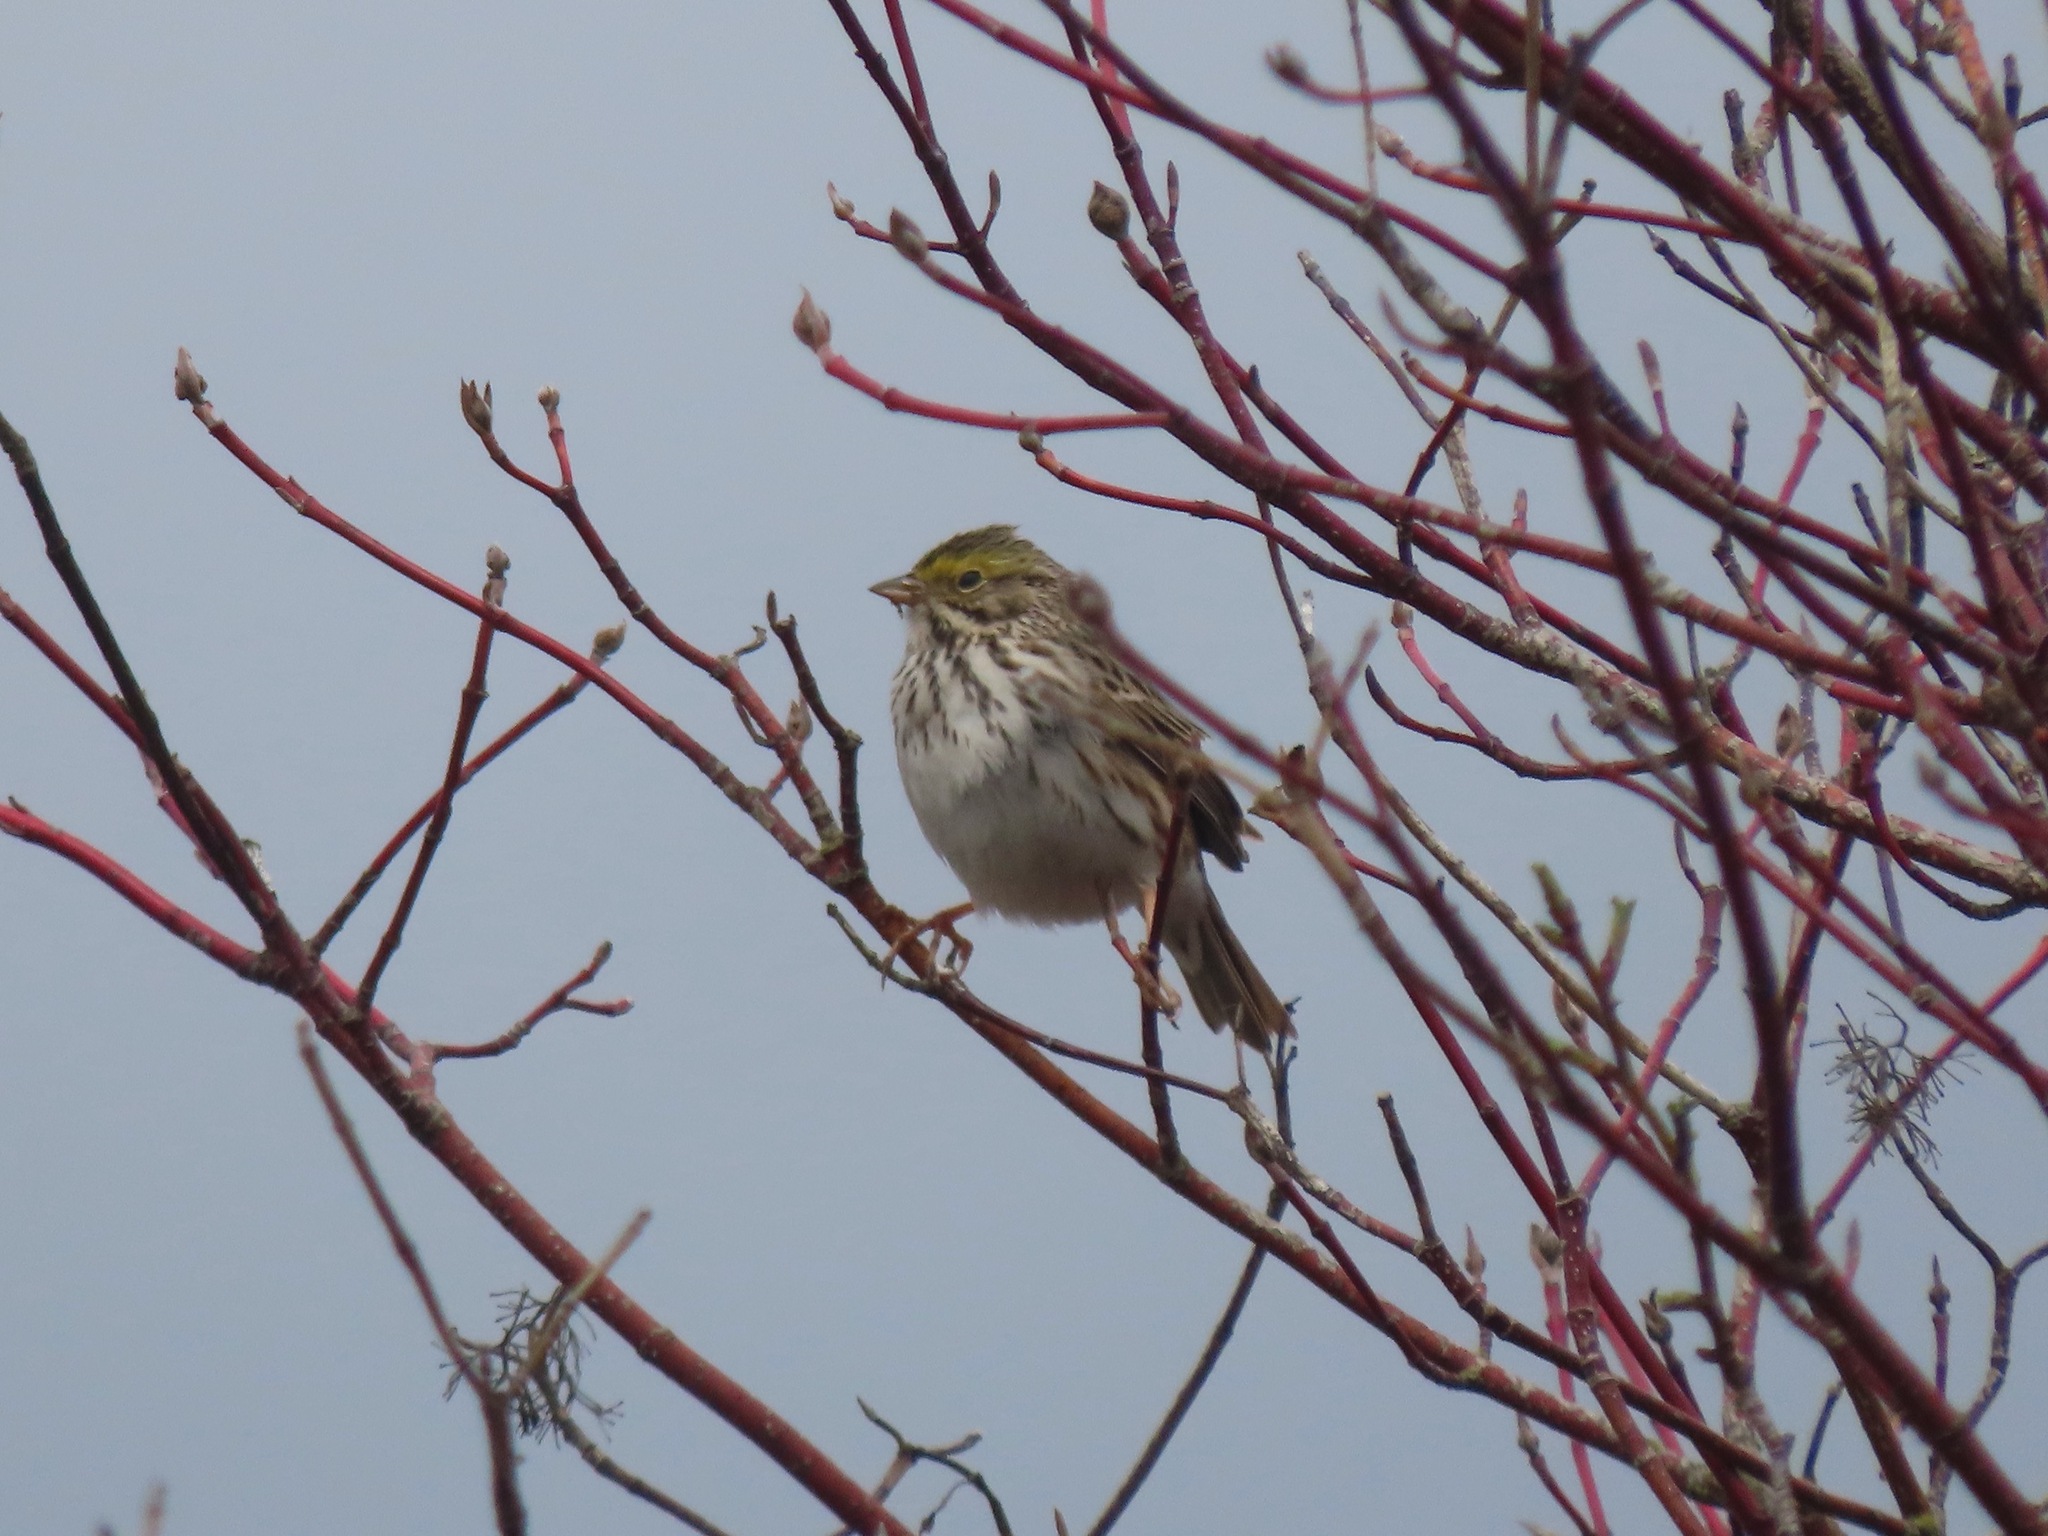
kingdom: Animalia
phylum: Chordata
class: Aves
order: Passeriformes
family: Passerellidae
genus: Passerculus
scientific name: Passerculus sandwichensis
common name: Savannah sparrow
